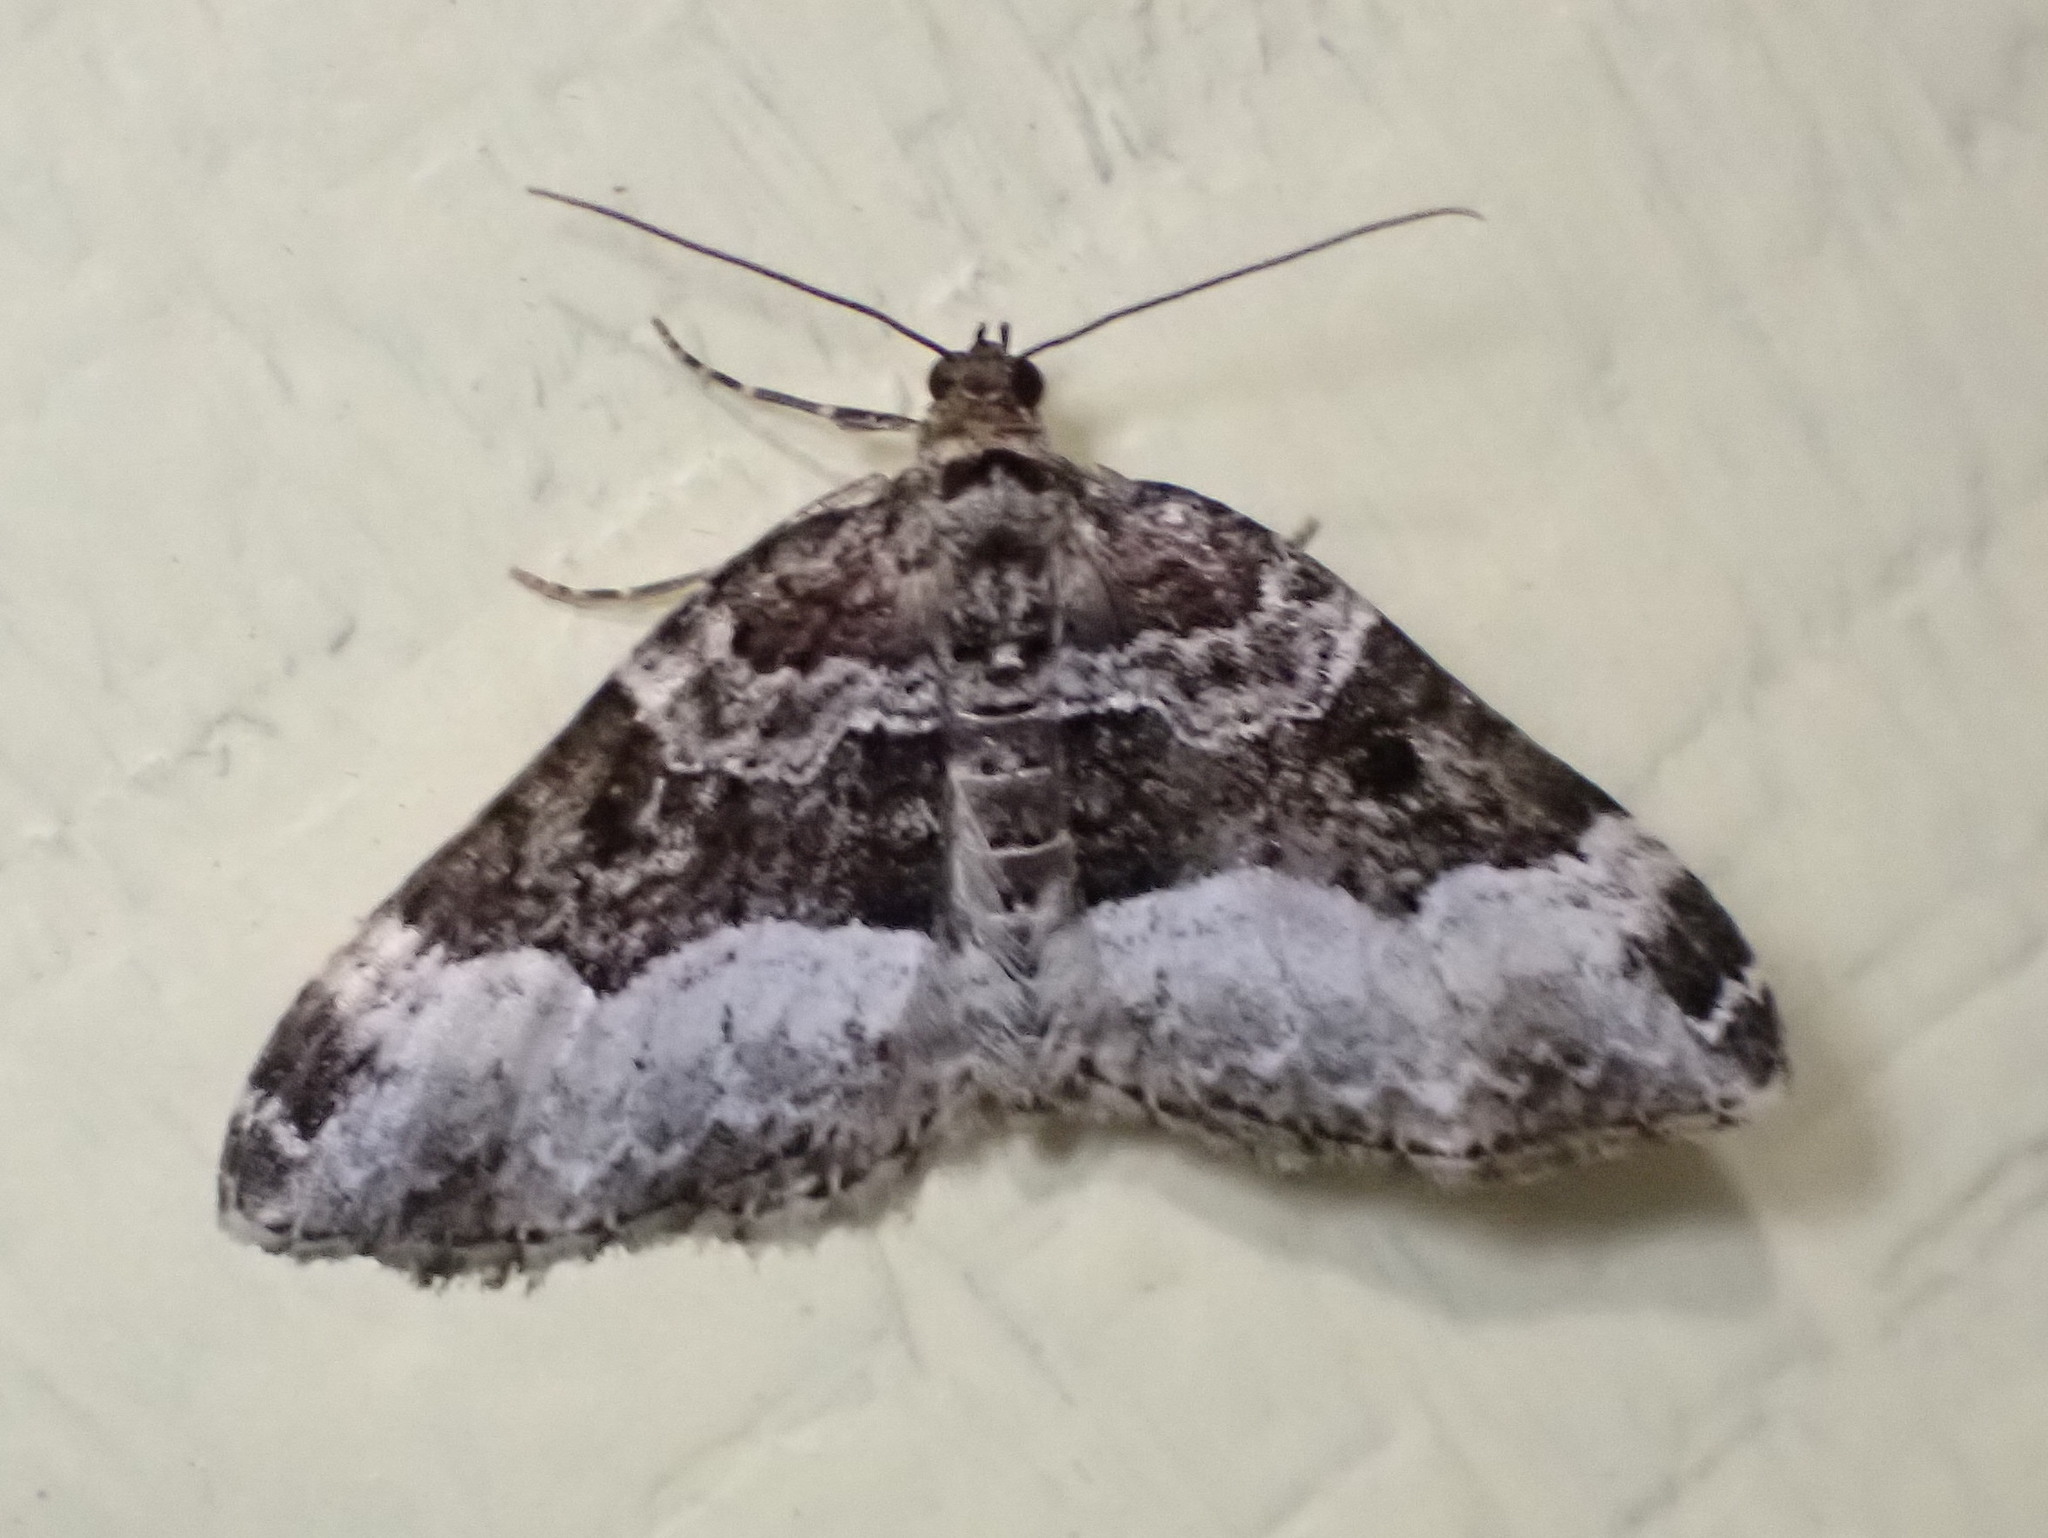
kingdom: Animalia
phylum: Arthropoda
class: Insecta
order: Lepidoptera
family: Geometridae
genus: Euphyia
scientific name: Euphyia intermediata
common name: Sharp-angled carpet
